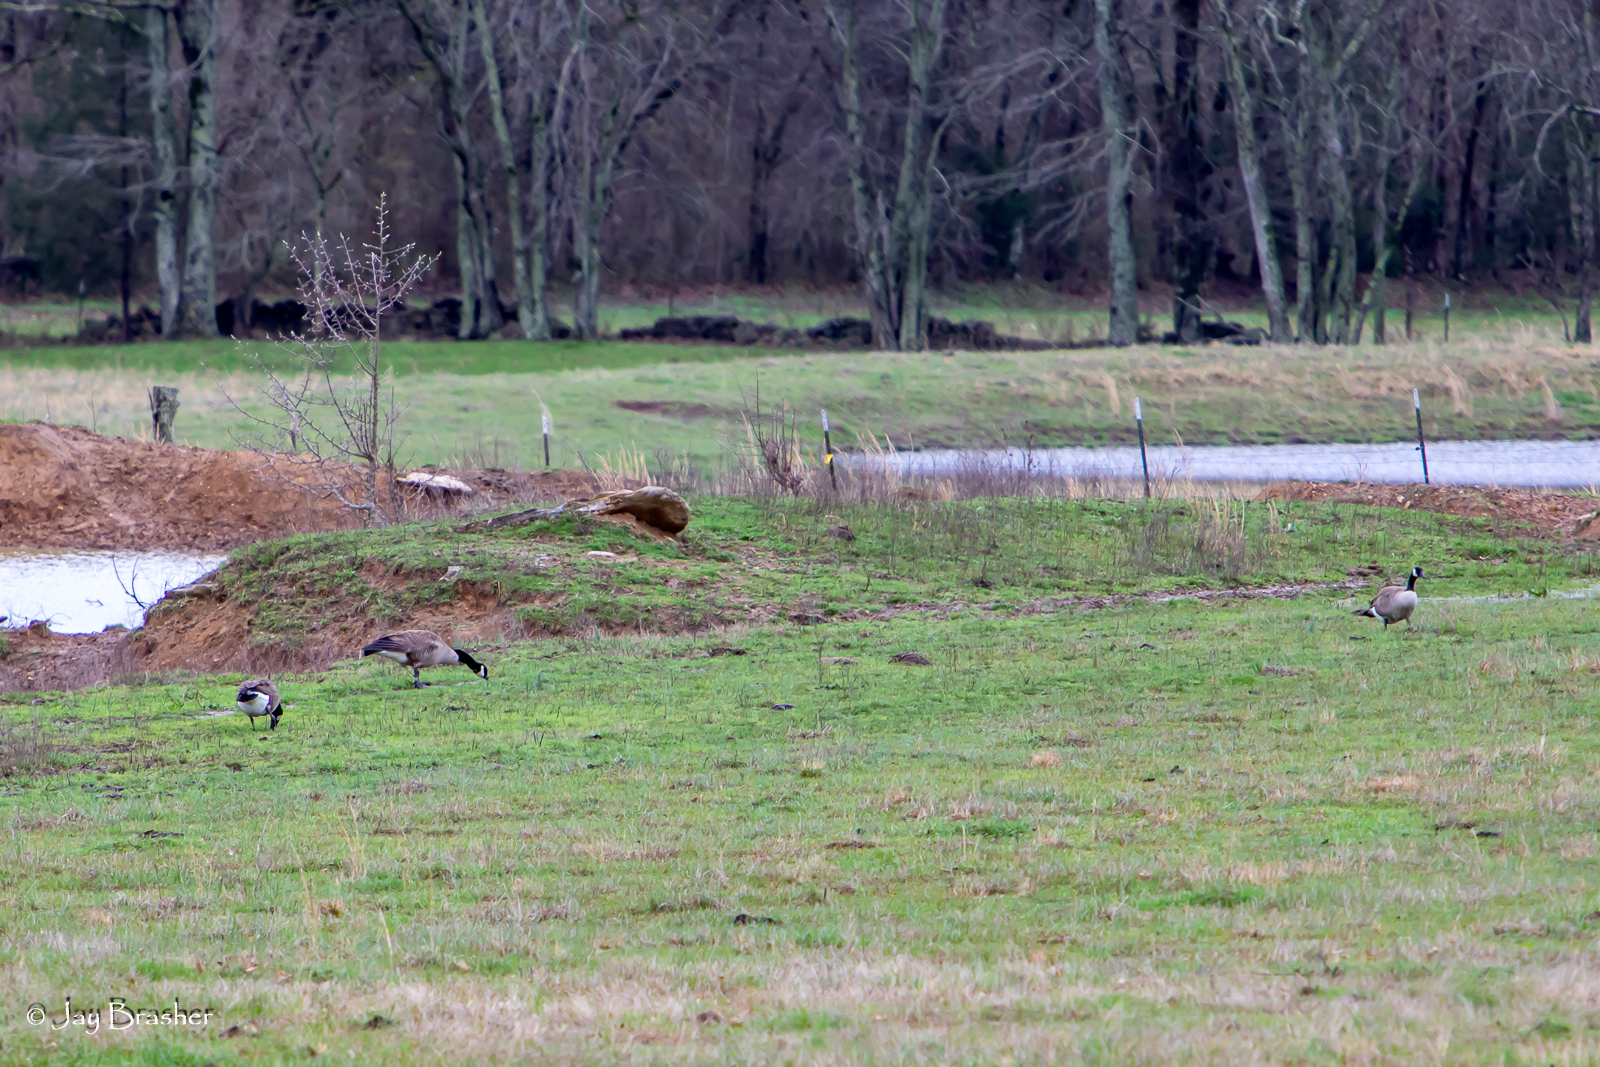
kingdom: Animalia
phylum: Chordata
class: Aves
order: Anseriformes
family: Anatidae
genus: Branta
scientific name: Branta canadensis
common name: Canada goose
